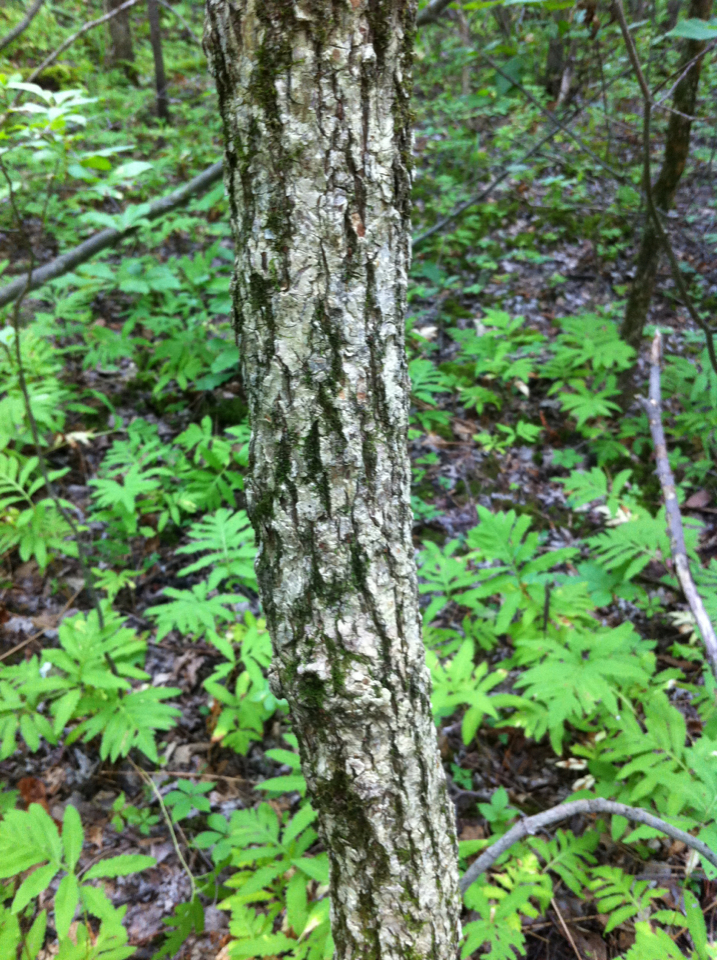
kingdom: Plantae
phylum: Tracheophyta
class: Polypodiopsida
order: Polypodiales
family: Onocleaceae
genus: Onoclea
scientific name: Onoclea sensibilis
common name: Sensitive fern
